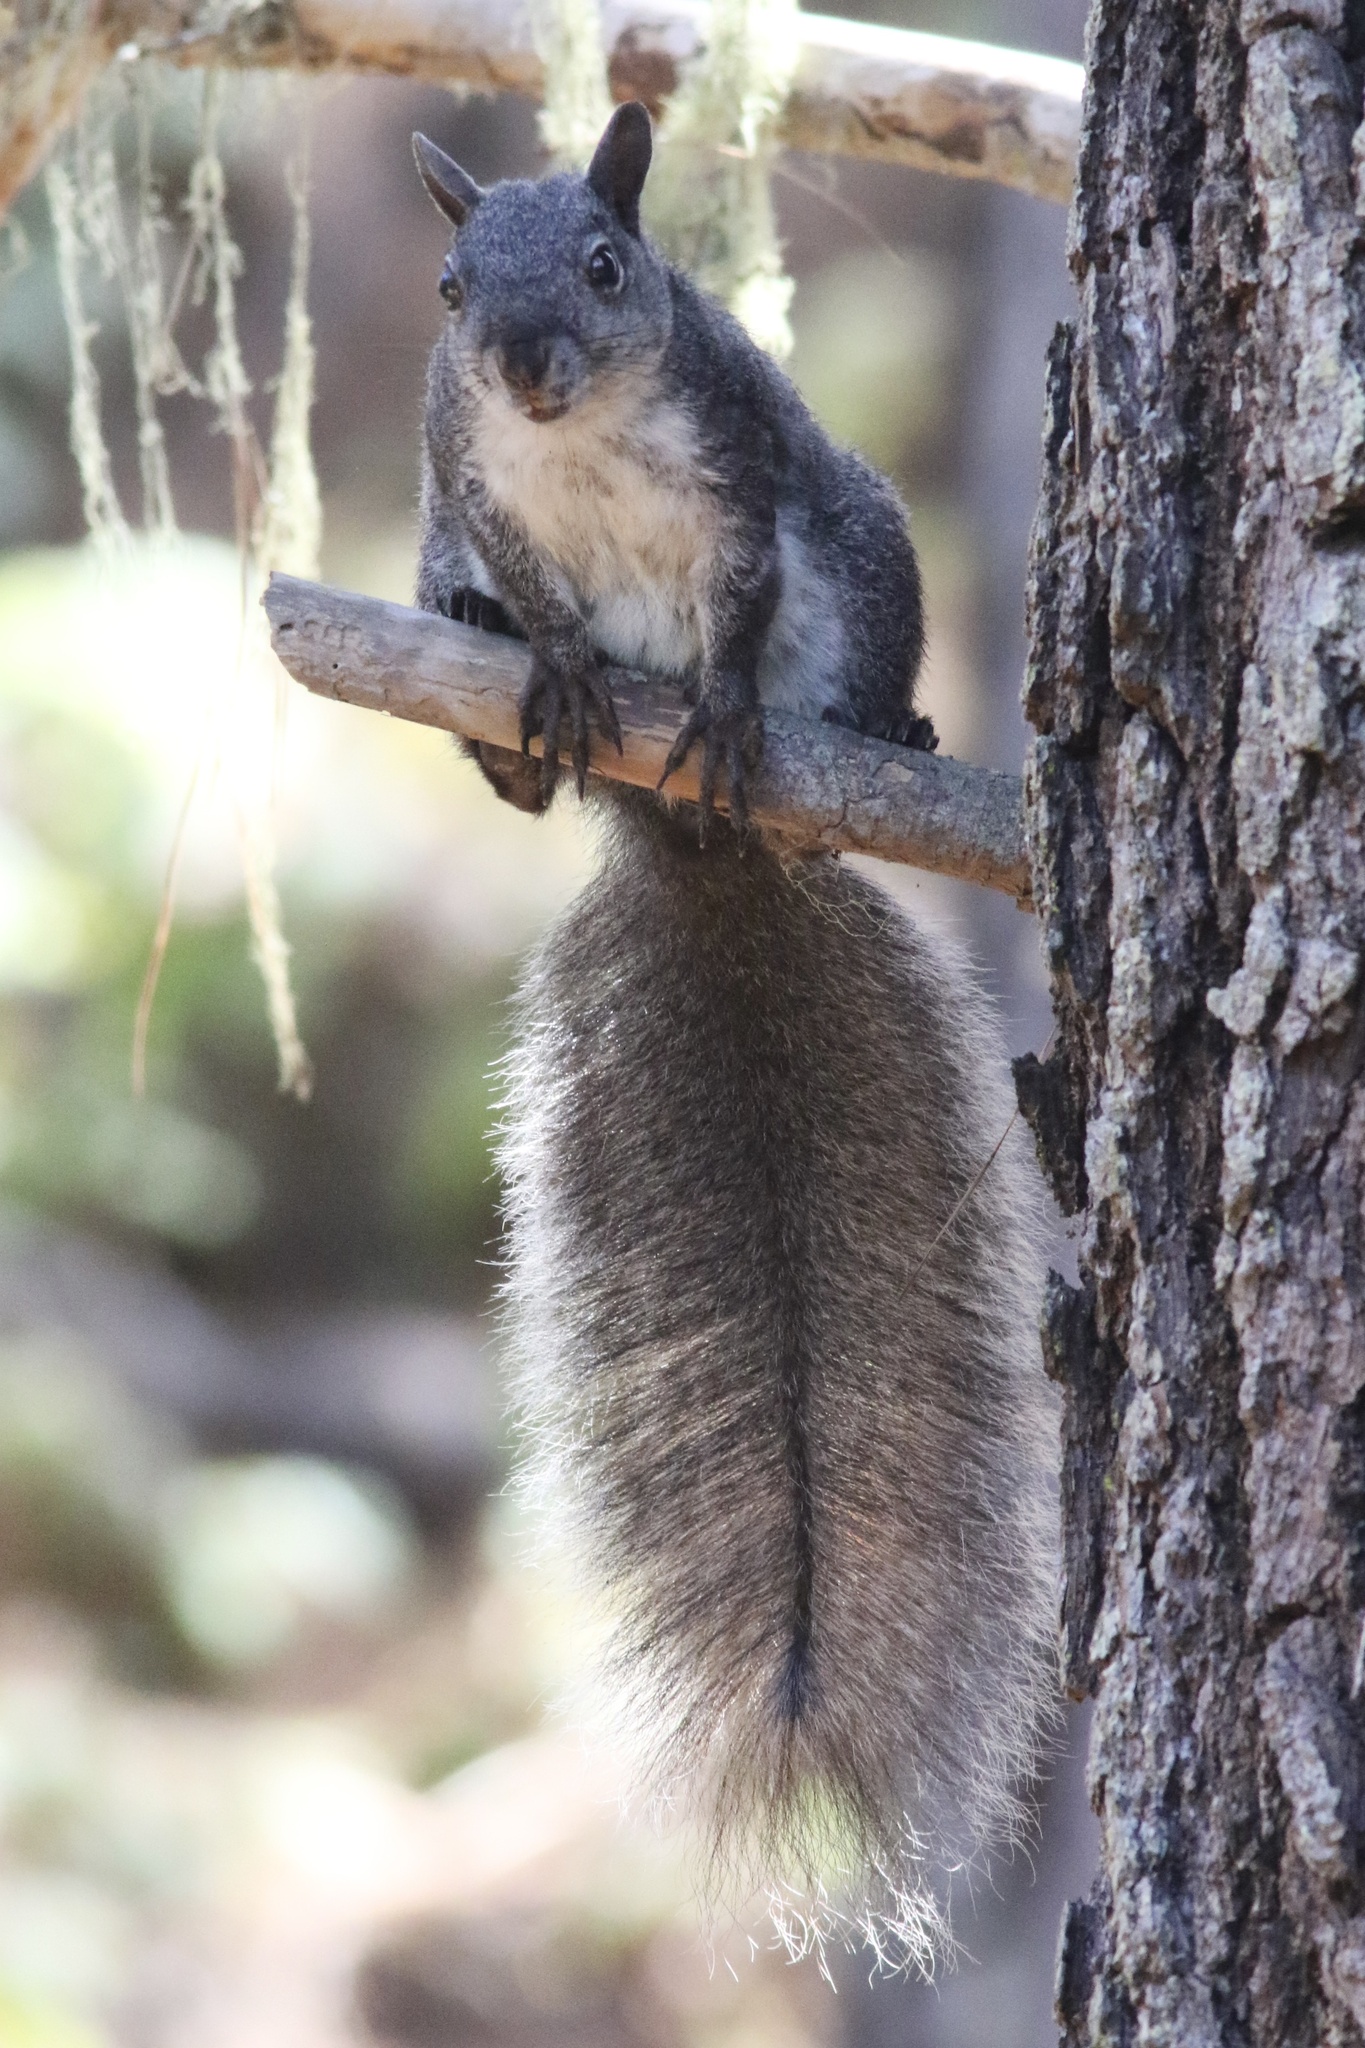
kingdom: Animalia
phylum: Chordata
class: Mammalia
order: Rodentia
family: Sciuridae
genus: Sciurus
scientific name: Sciurus griseus
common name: Western gray squirrel
